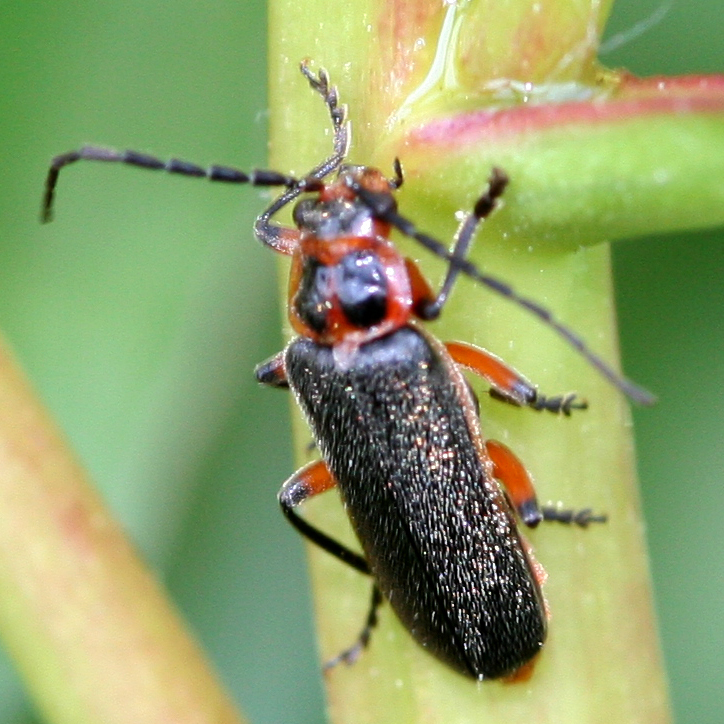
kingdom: Animalia
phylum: Arthropoda
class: Insecta
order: Coleoptera
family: Cantharidae
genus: Atalantycha
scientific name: Atalantycha bilineata
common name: Two-lined leatherwing
